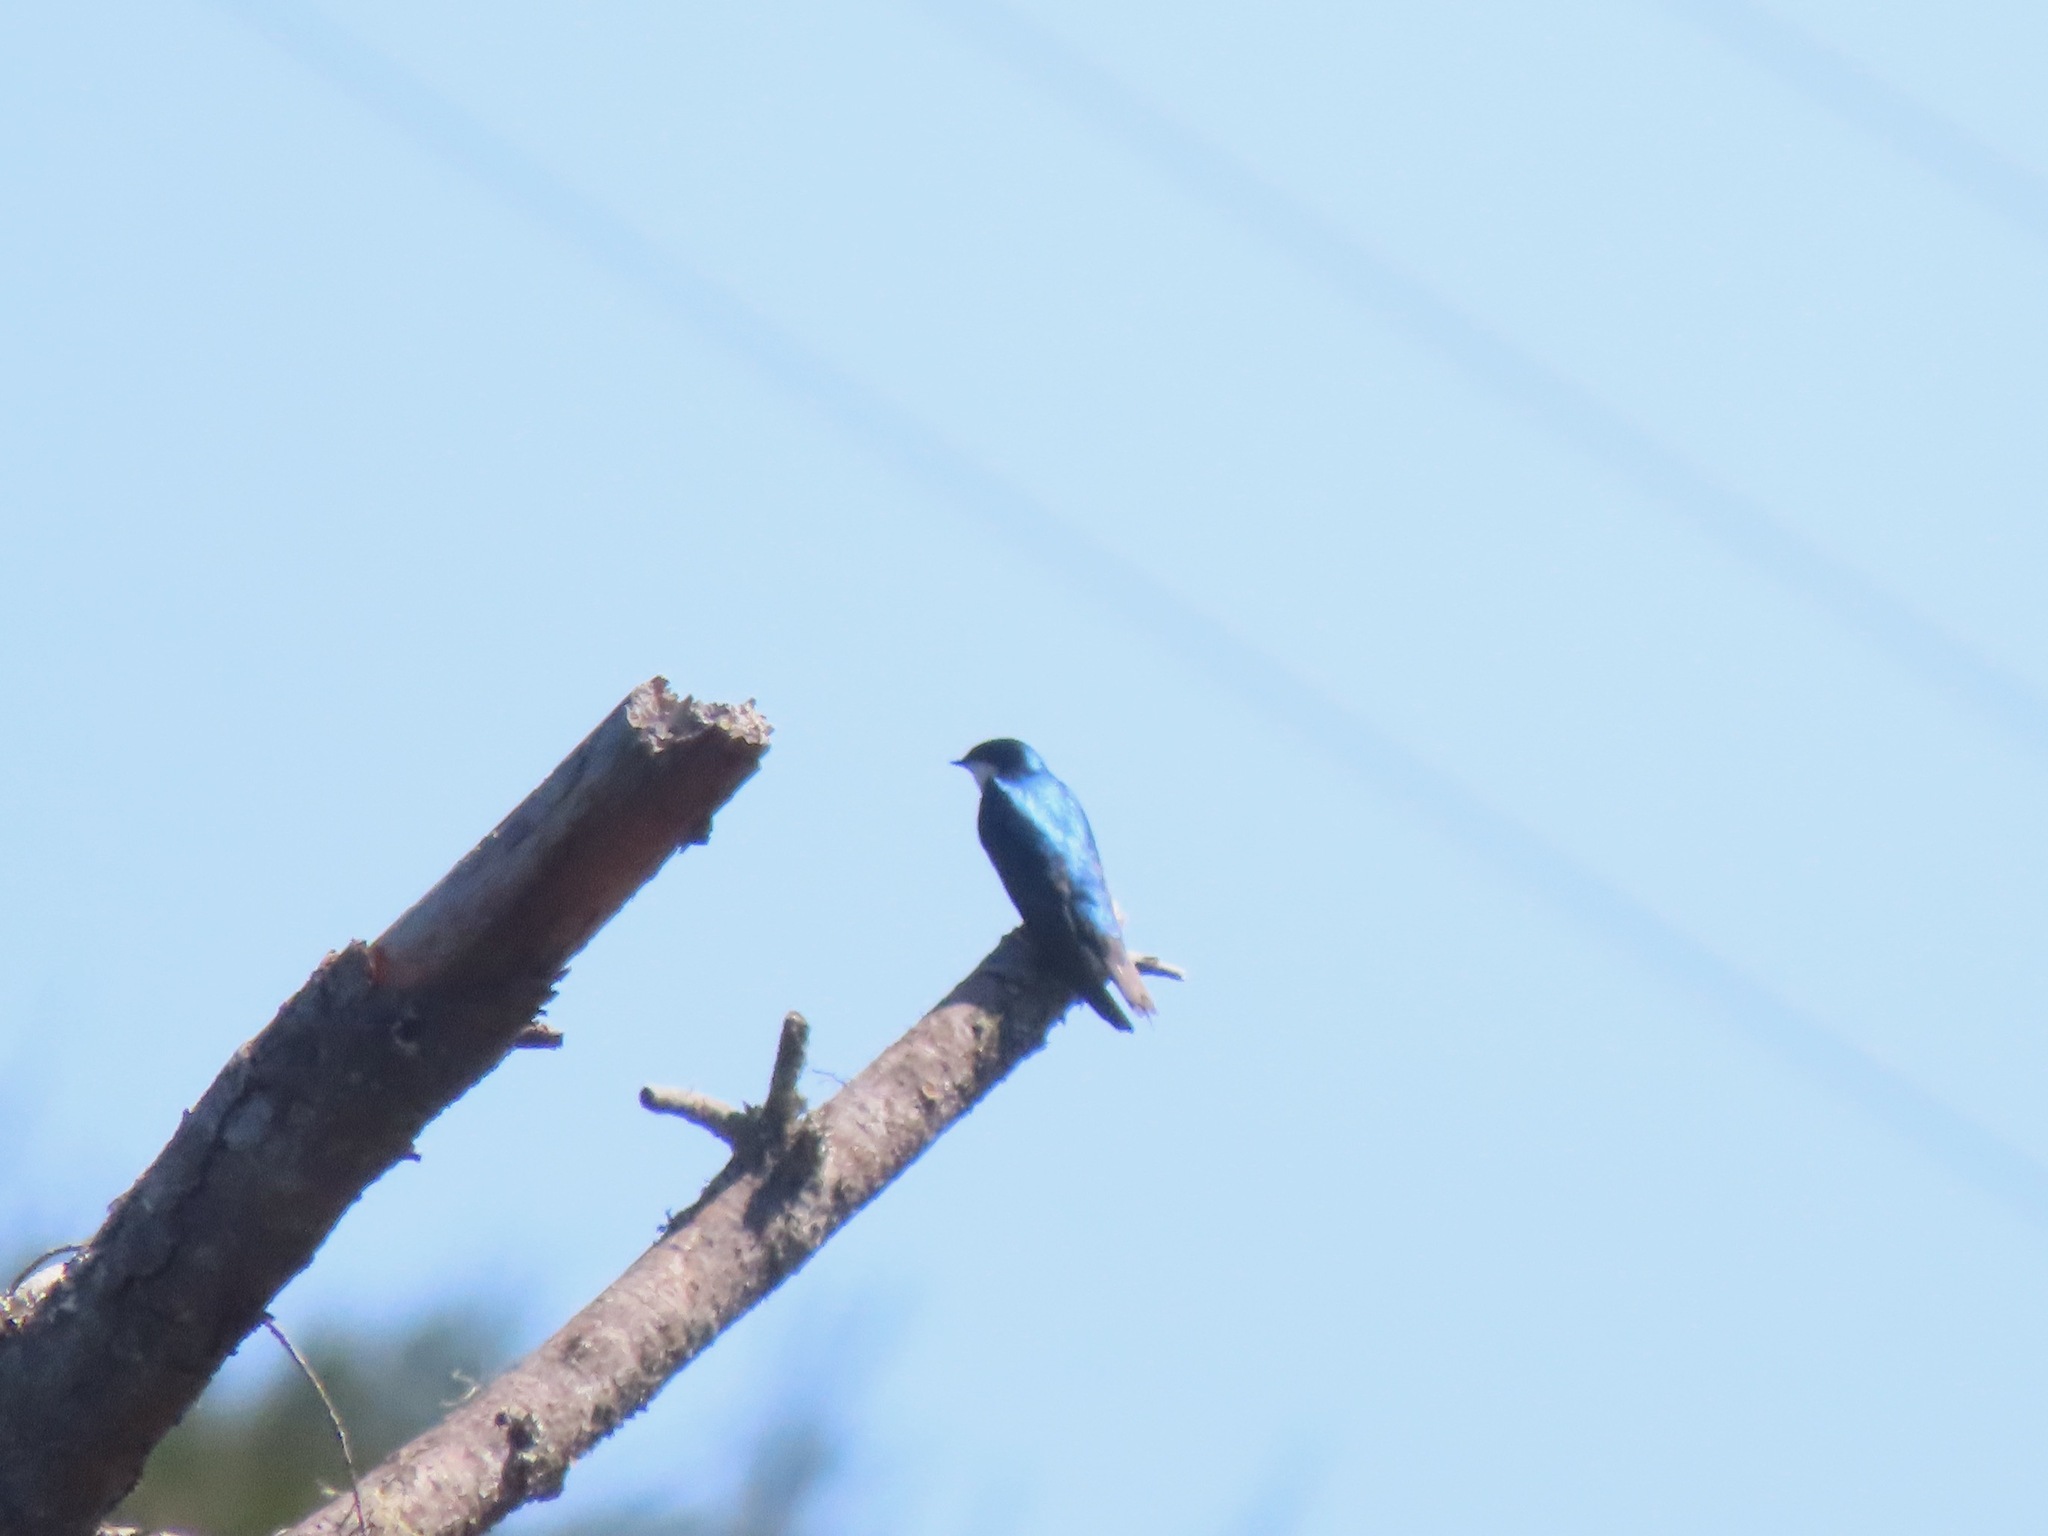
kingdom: Animalia
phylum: Chordata
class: Aves
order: Passeriformes
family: Hirundinidae
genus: Tachycineta
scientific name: Tachycineta bicolor
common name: Tree swallow
